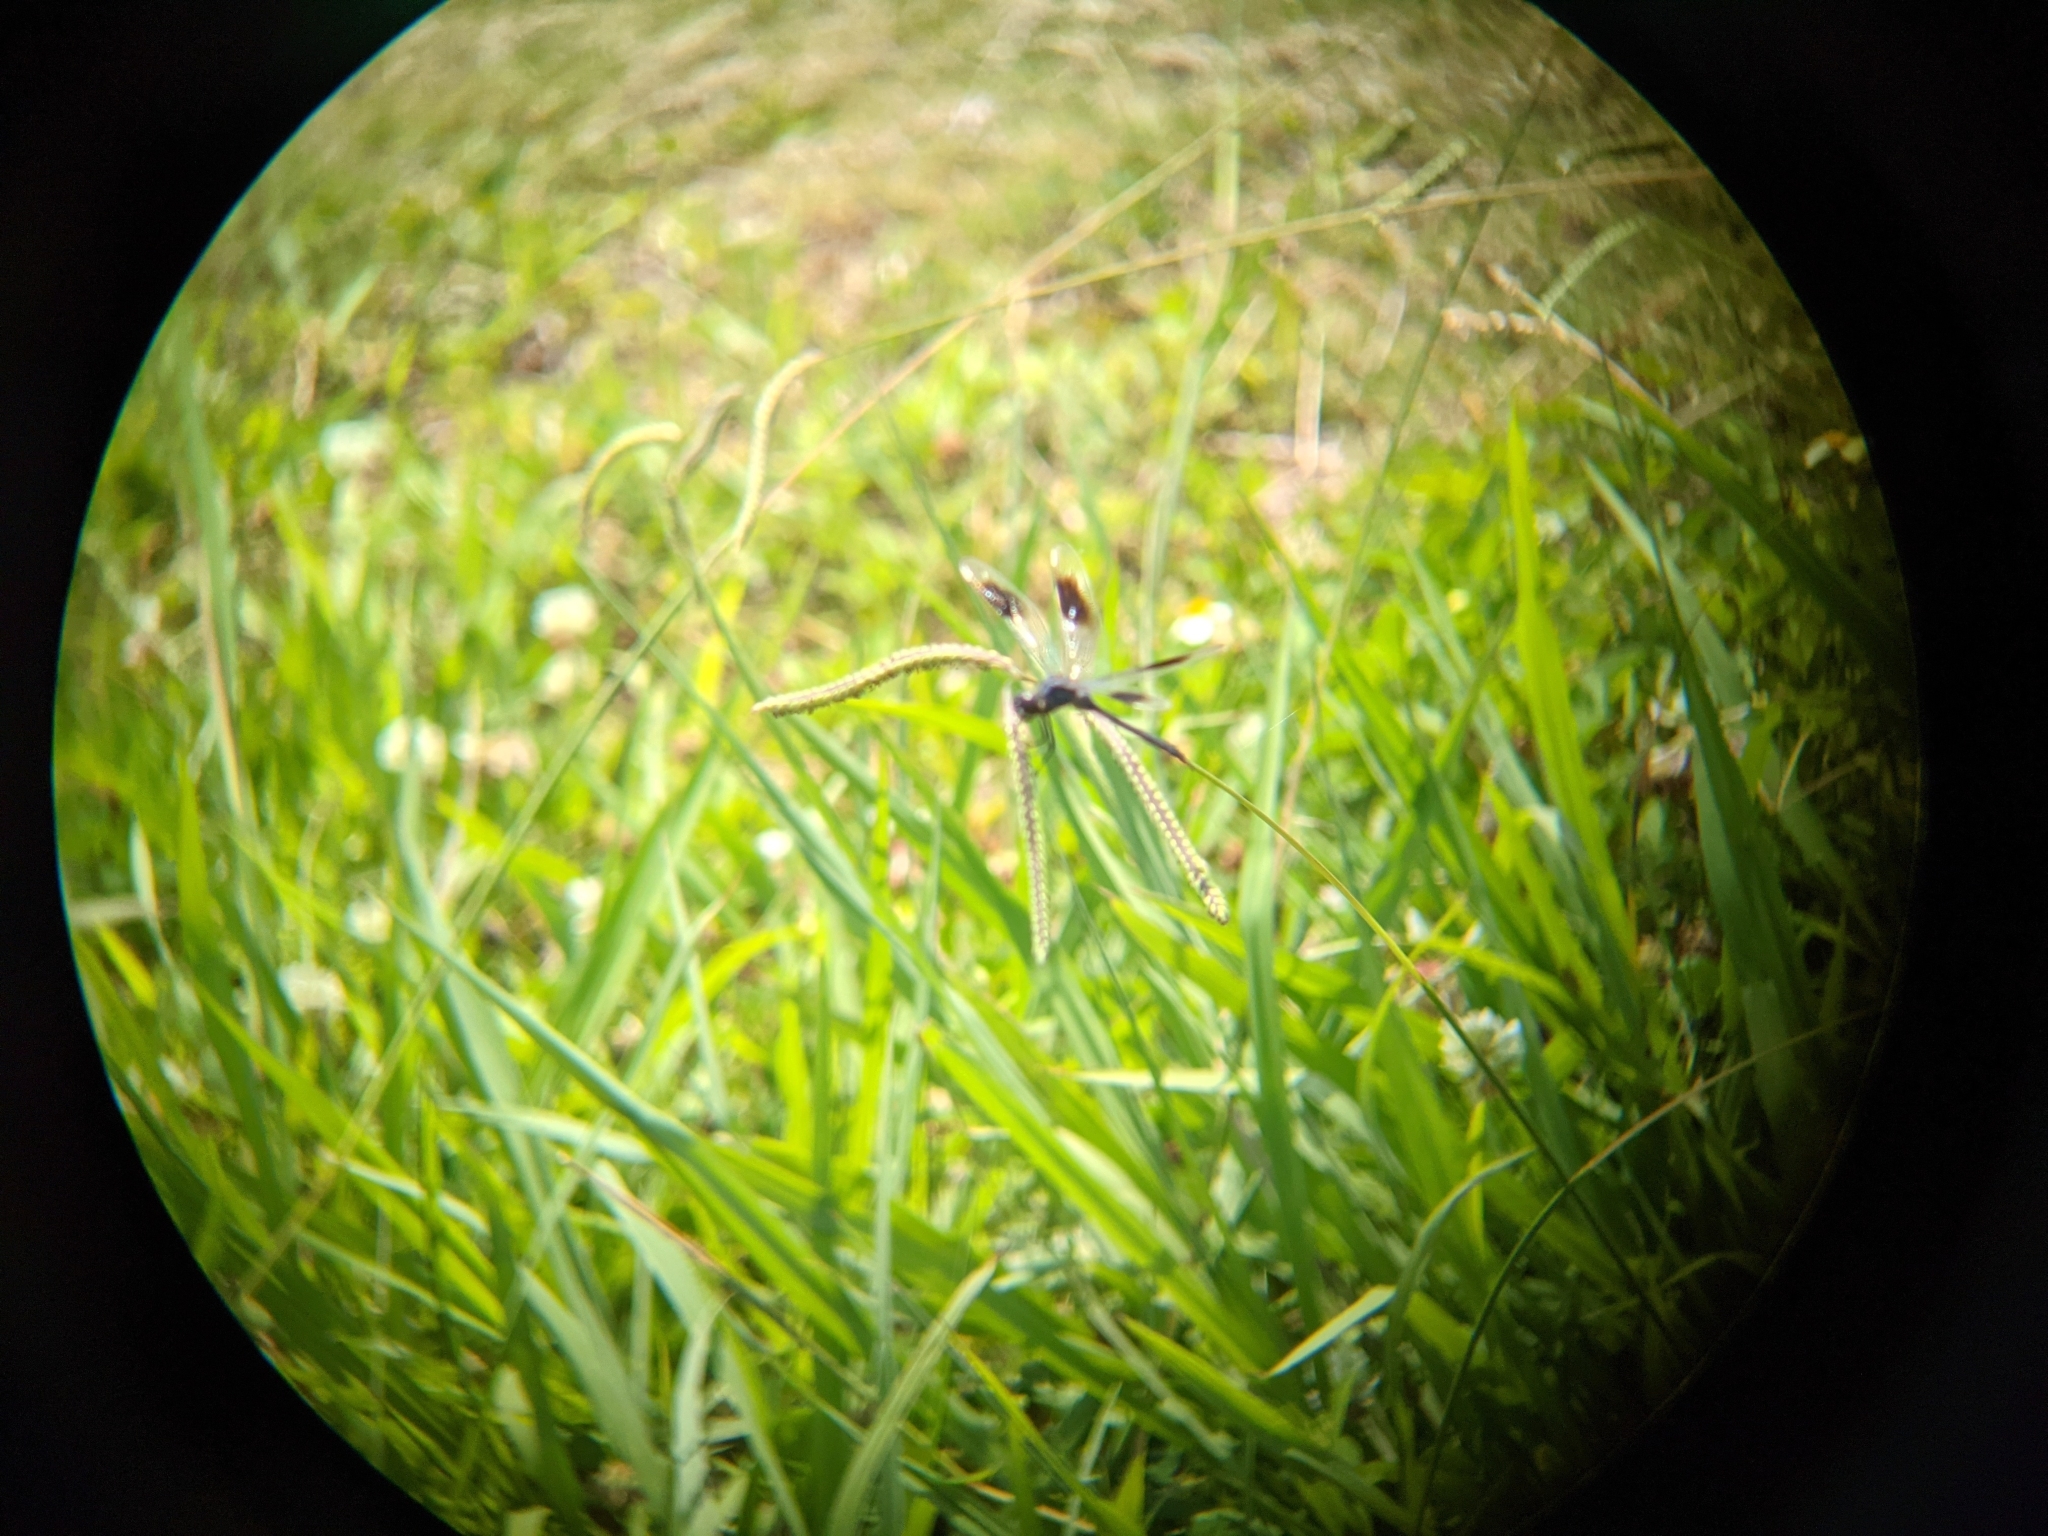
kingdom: Animalia
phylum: Arthropoda
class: Insecta
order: Odonata
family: Libellulidae
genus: Brachymesia
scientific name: Brachymesia gravida
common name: Four-spotted pennant
